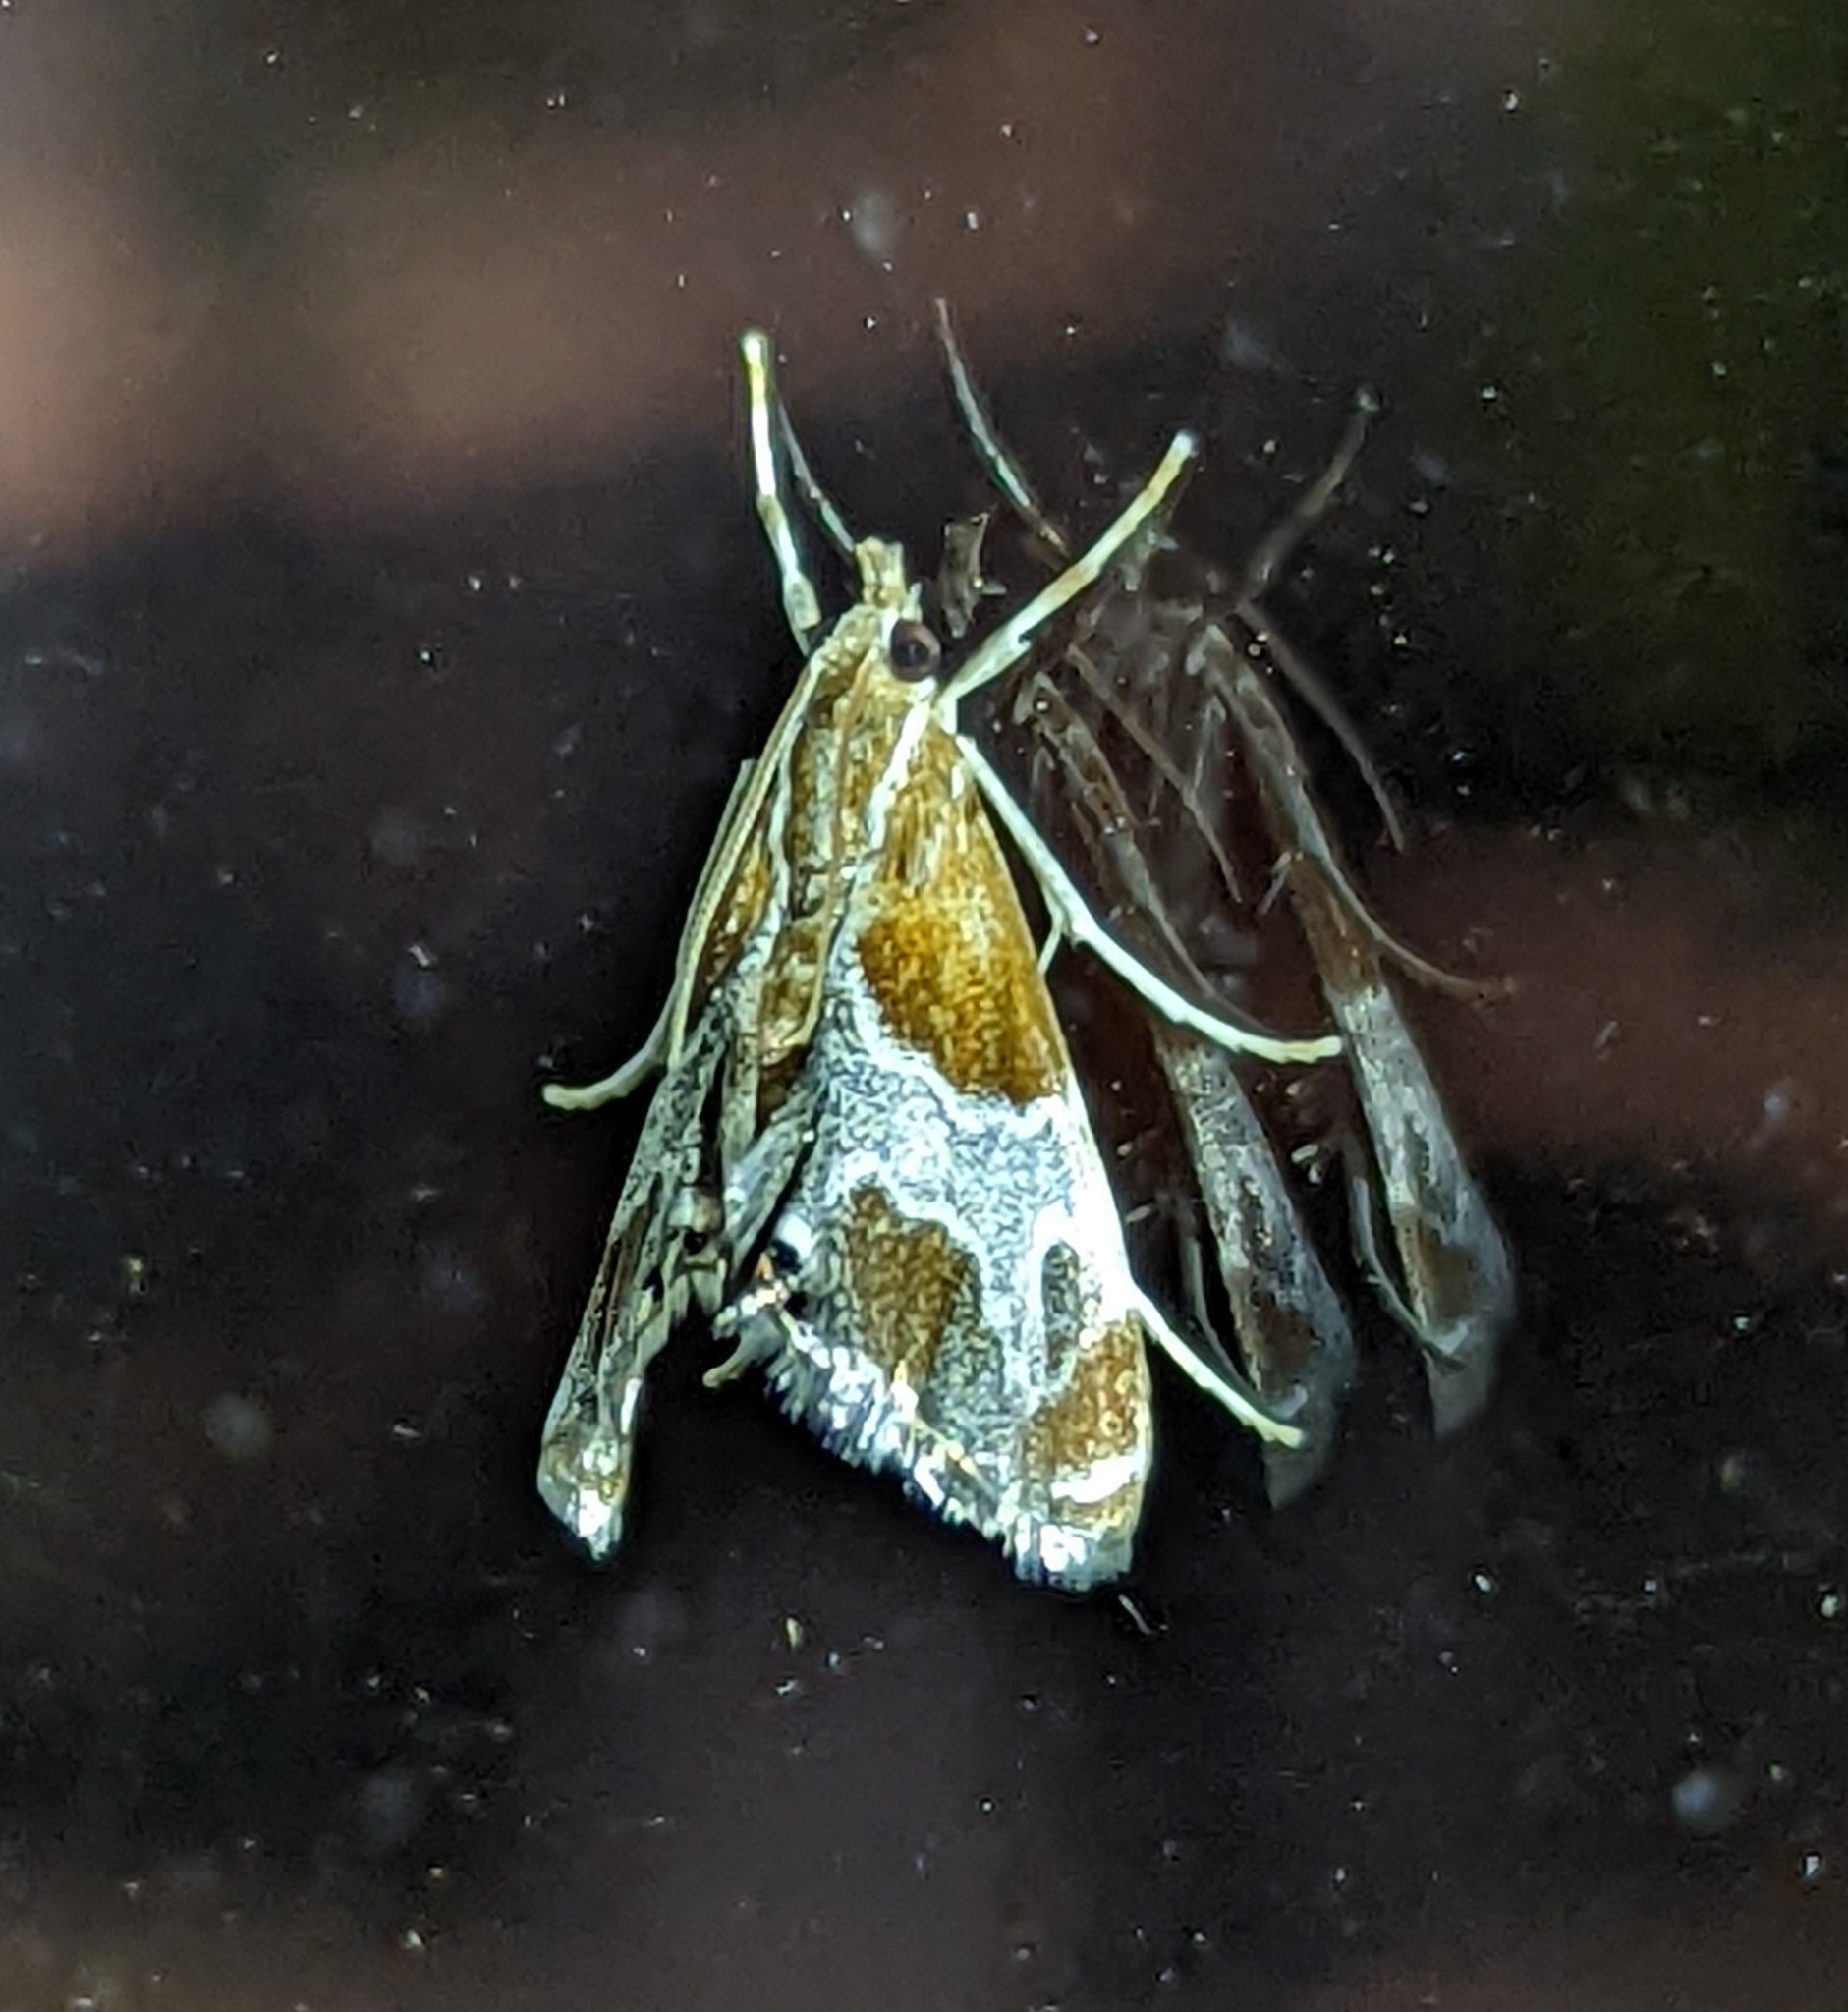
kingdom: Animalia
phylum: Arthropoda
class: Insecta
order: Lepidoptera
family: Crambidae
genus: Chalcoela
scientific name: Chalcoela pegasalis
